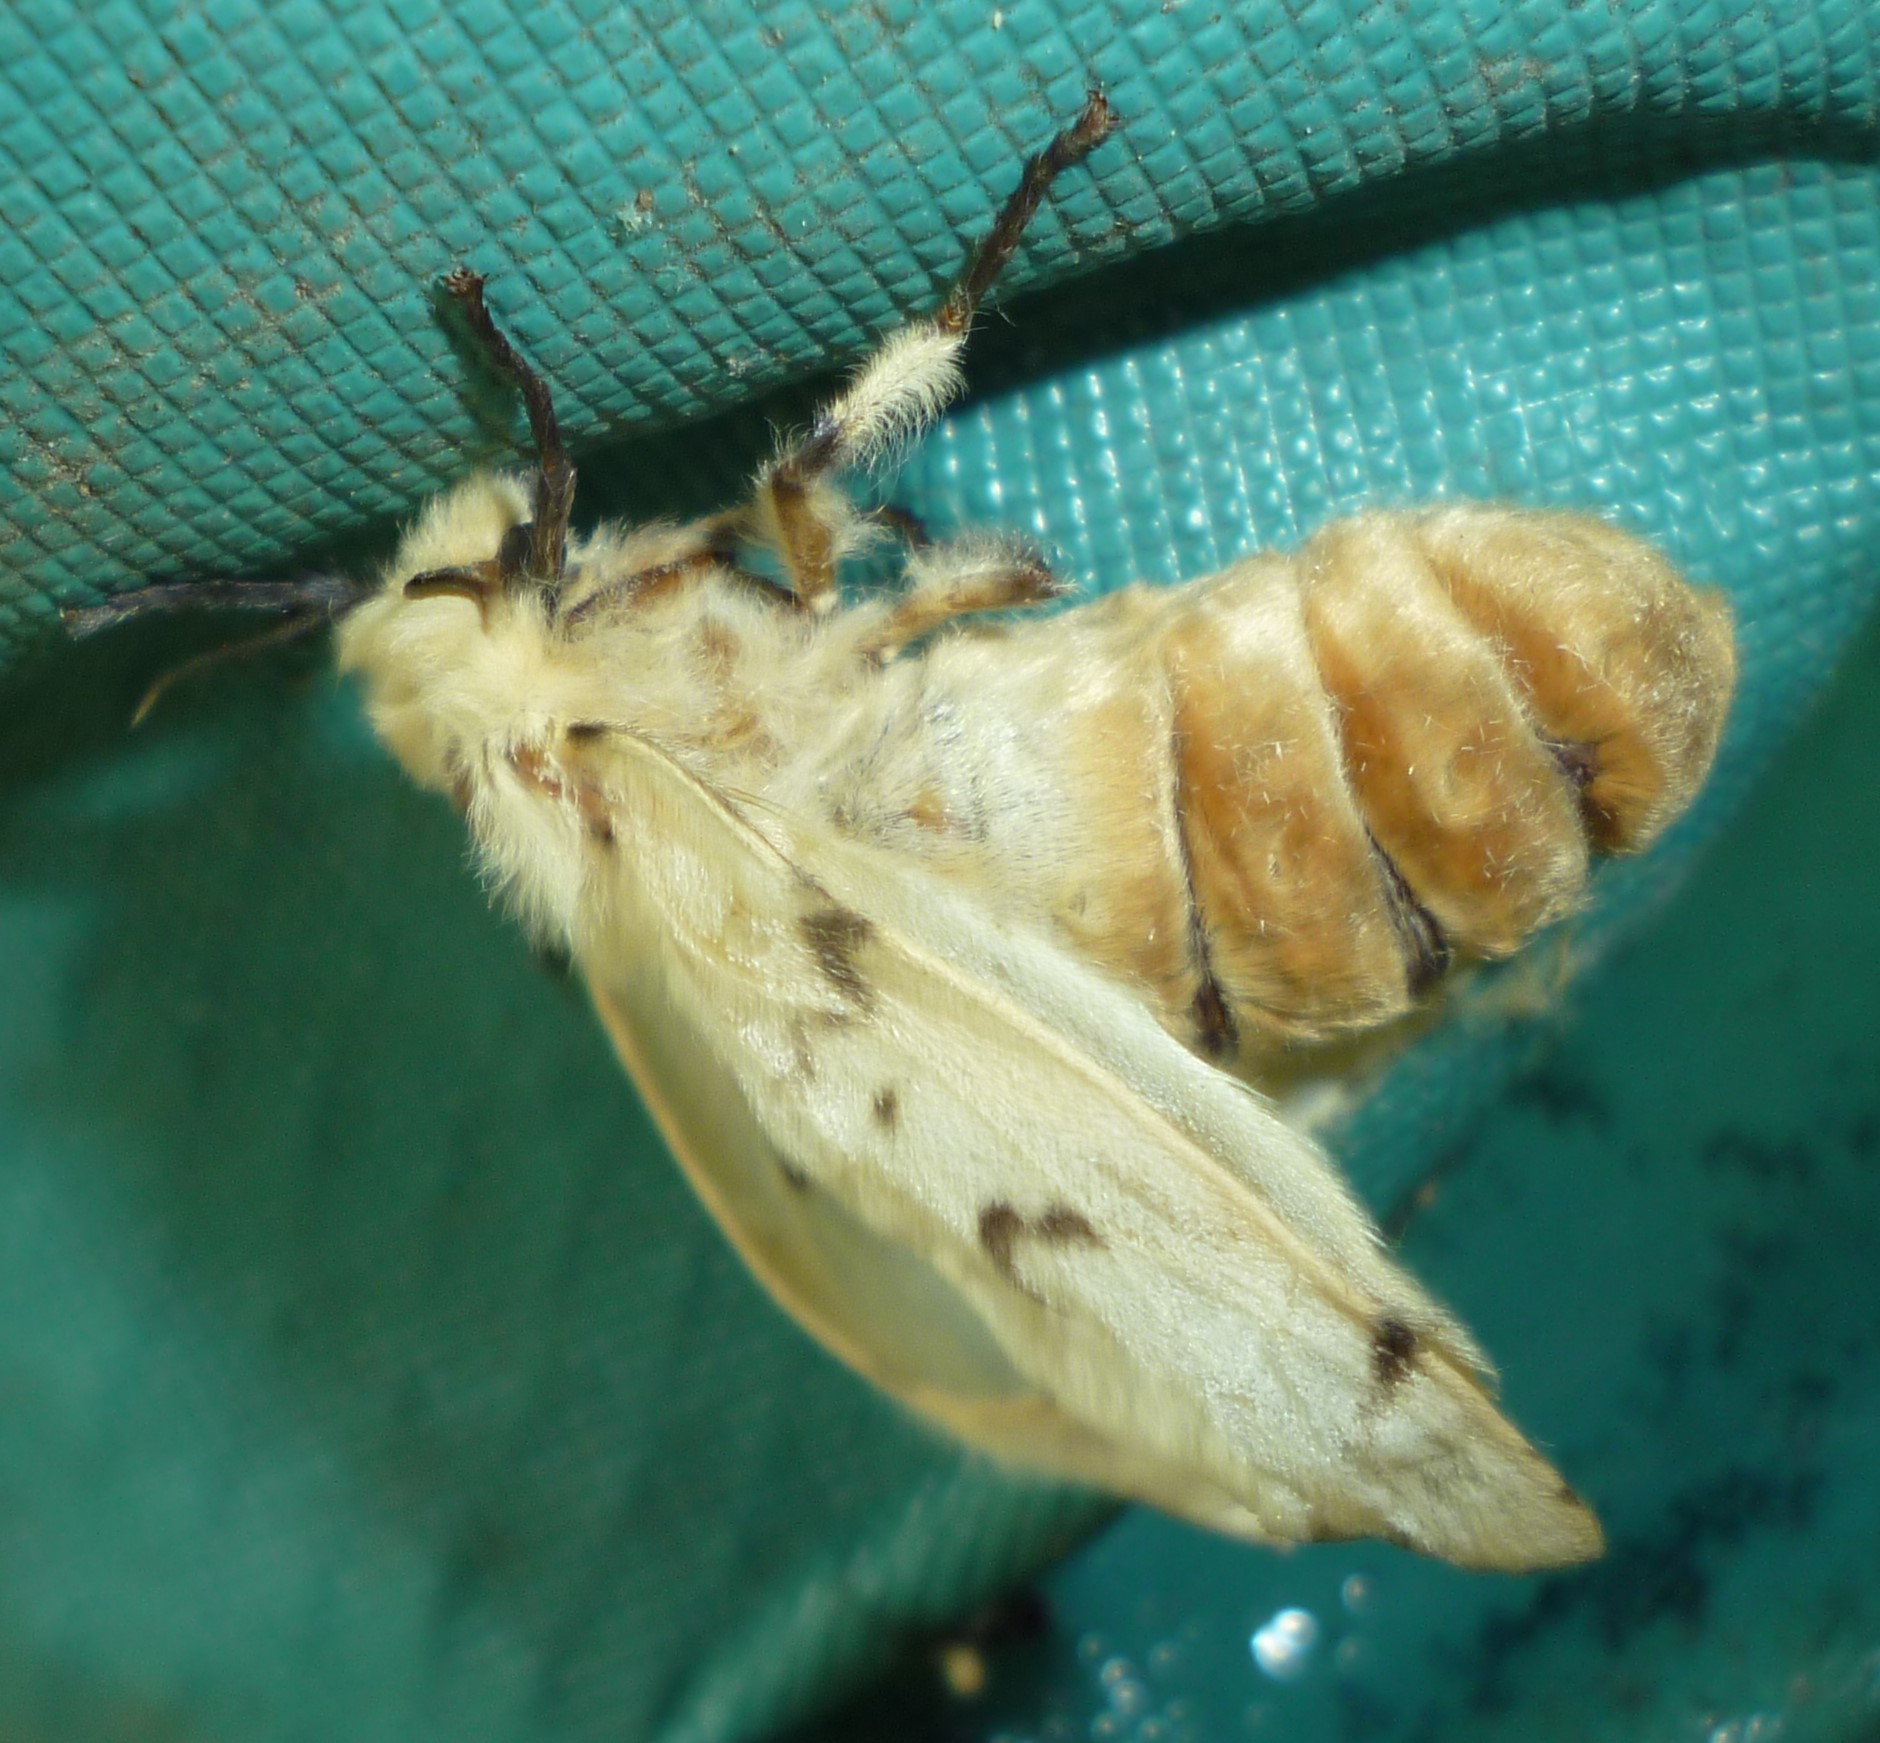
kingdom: Animalia
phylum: Arthropoda
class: Insecta
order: Lepidoptera
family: Erebidae
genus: Lymantria
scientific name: Lymantria dispar
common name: Gypsy moth
